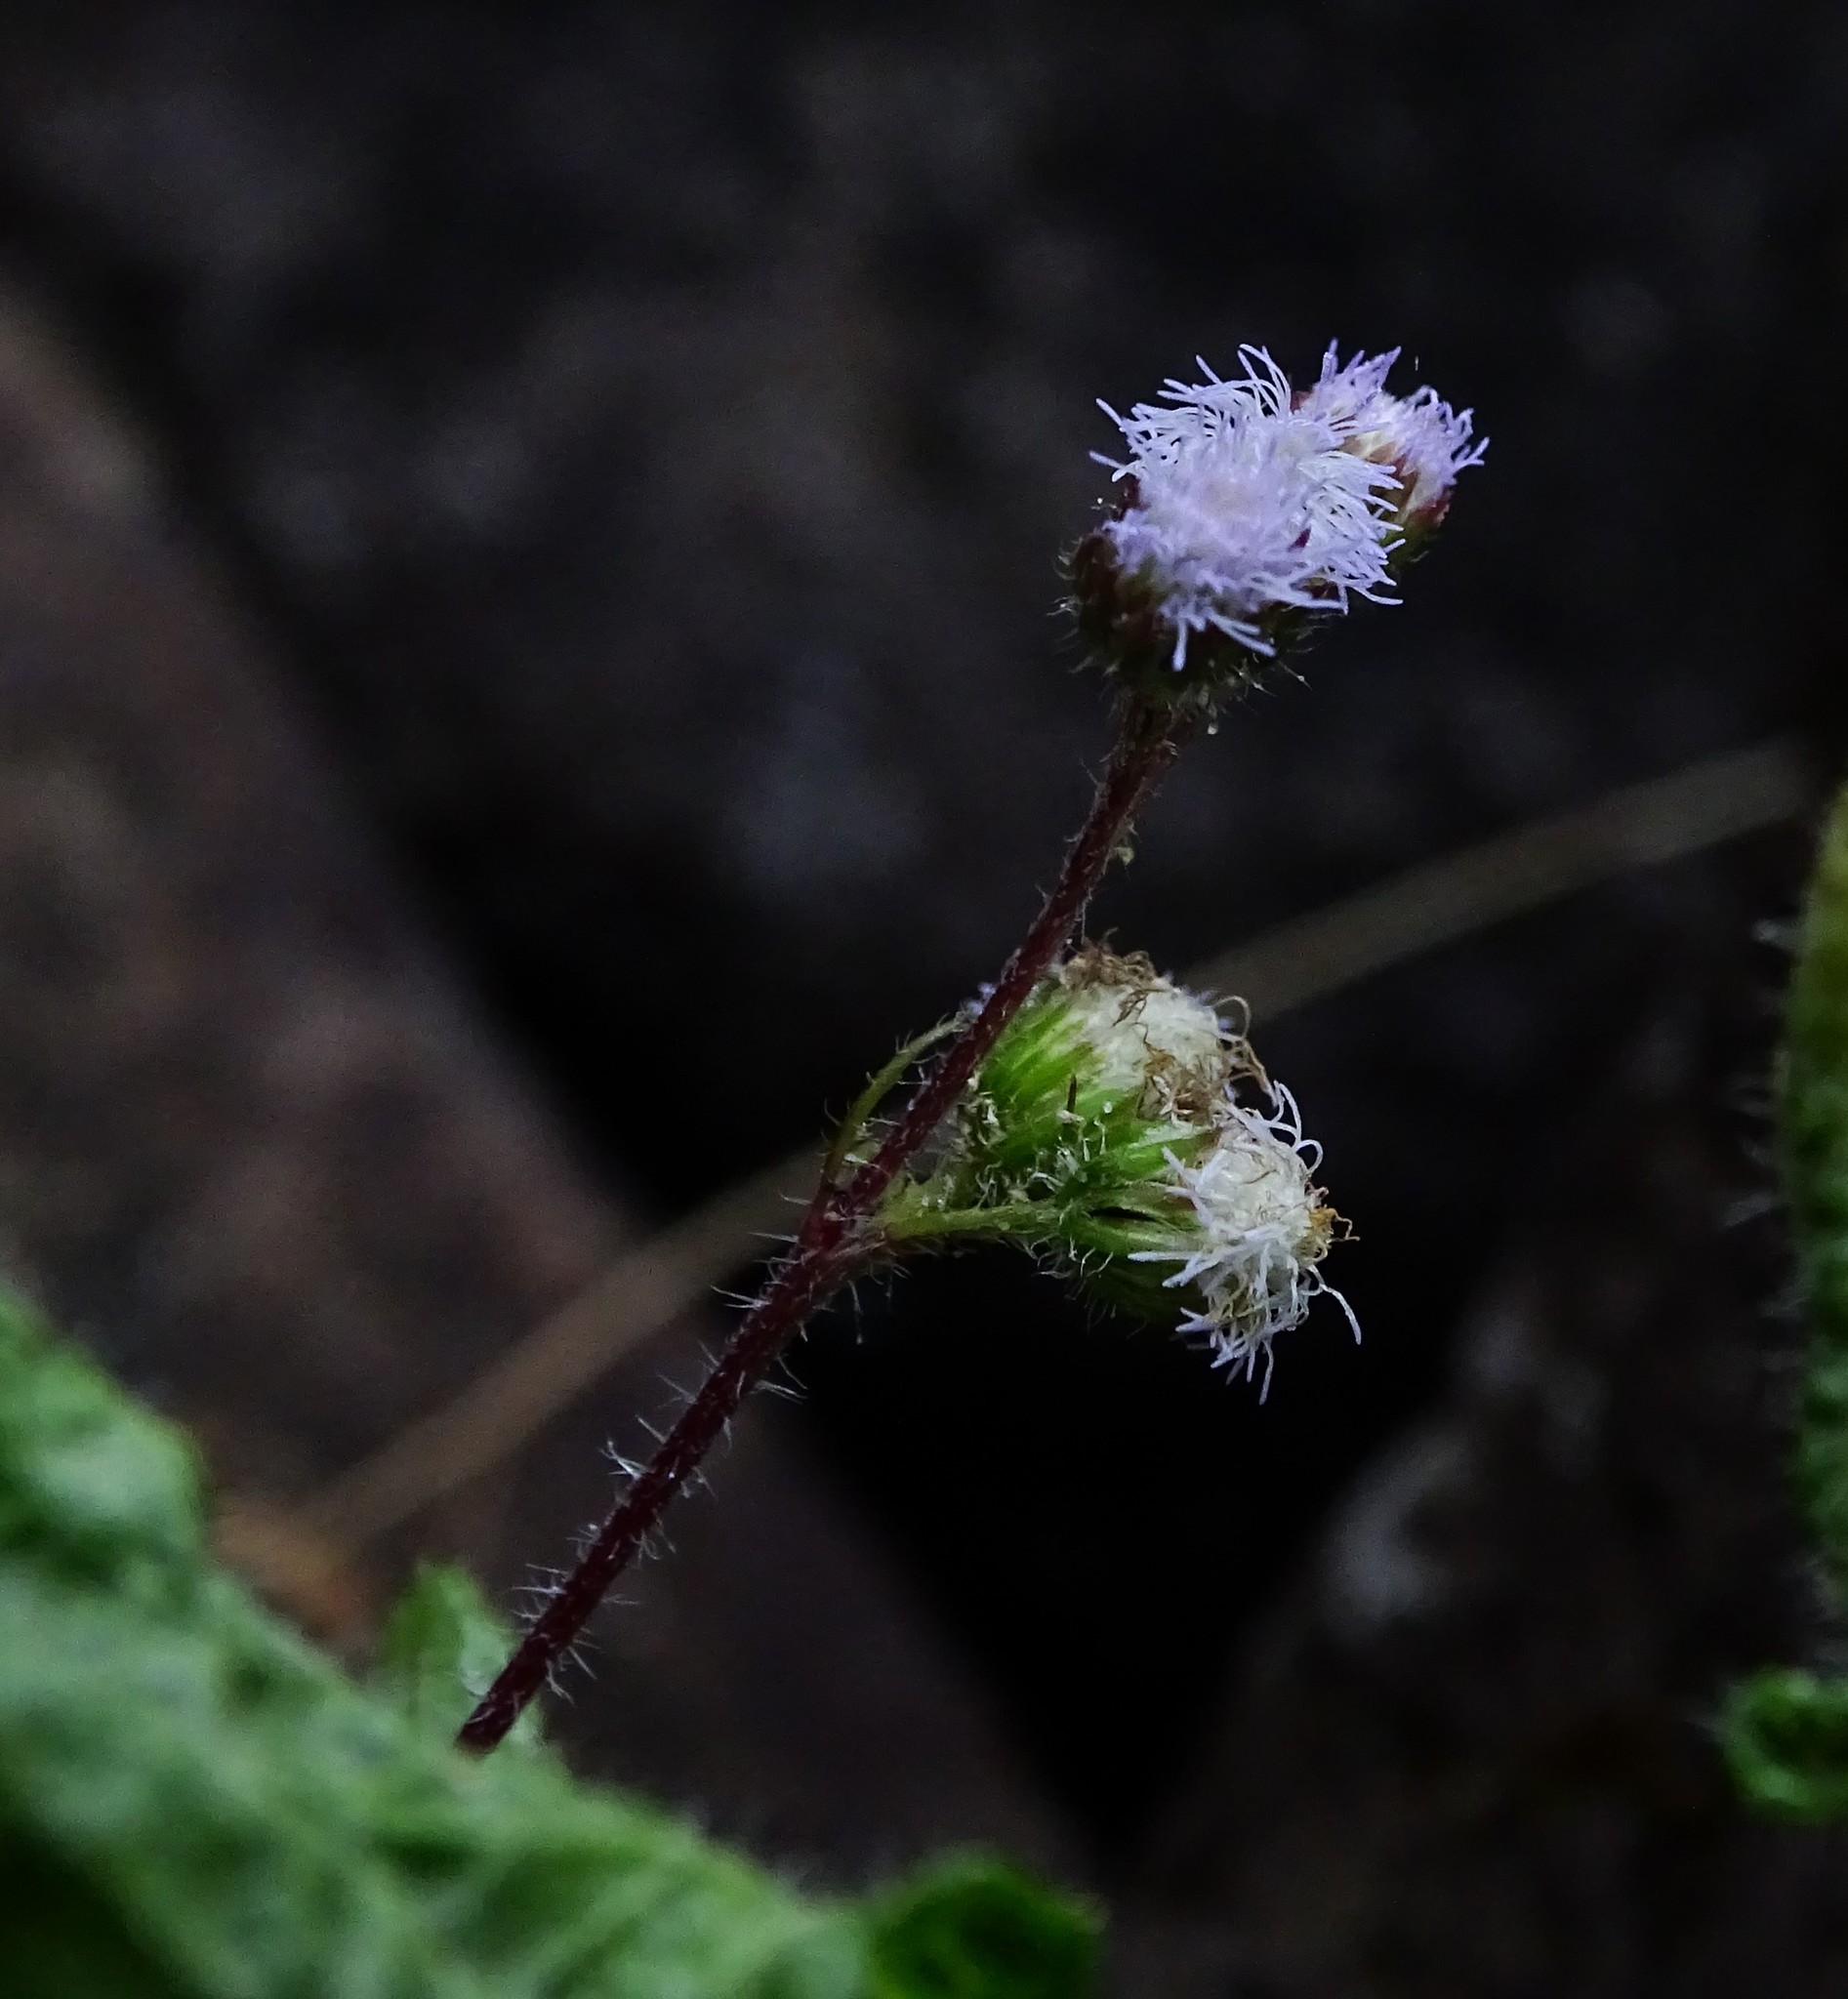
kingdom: Plantae
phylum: Tracheophyta
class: Magnoliopsida
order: Asterales
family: Asteraceae
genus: Ageratum
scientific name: Ageratum conyzoides
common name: Tropical whiteweed
